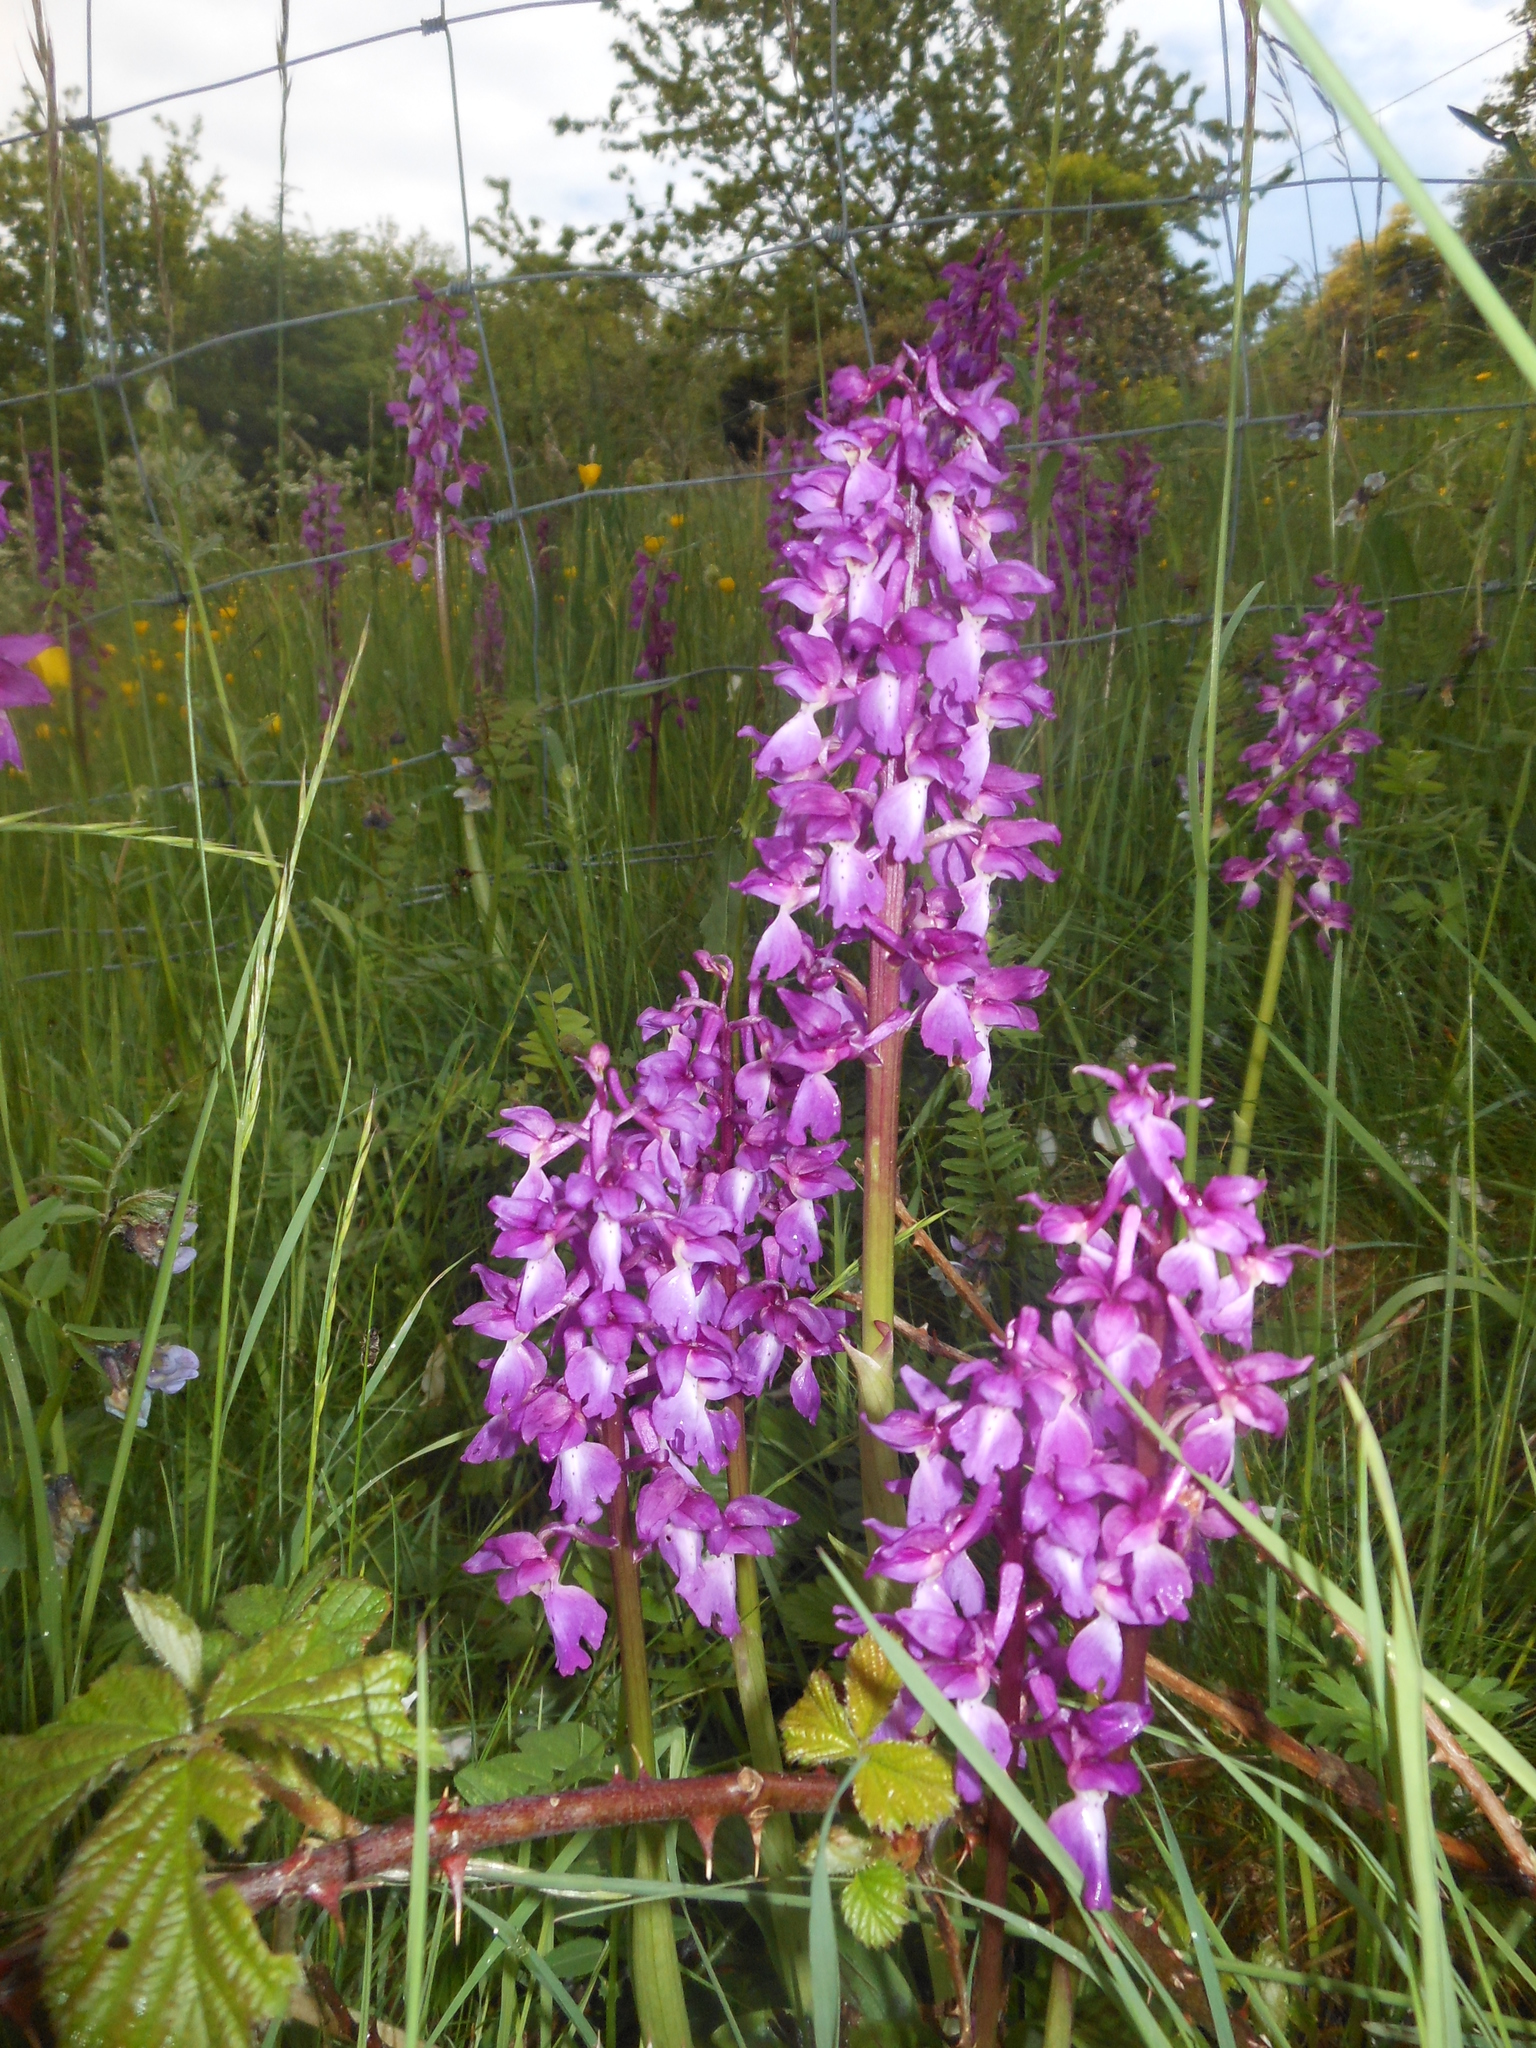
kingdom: Plantae
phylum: Tracheophyta
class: Liliopsida
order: Asparagales
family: Orchidaceae
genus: Orchis
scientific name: Orchis mascula
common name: Early-purple orchid
